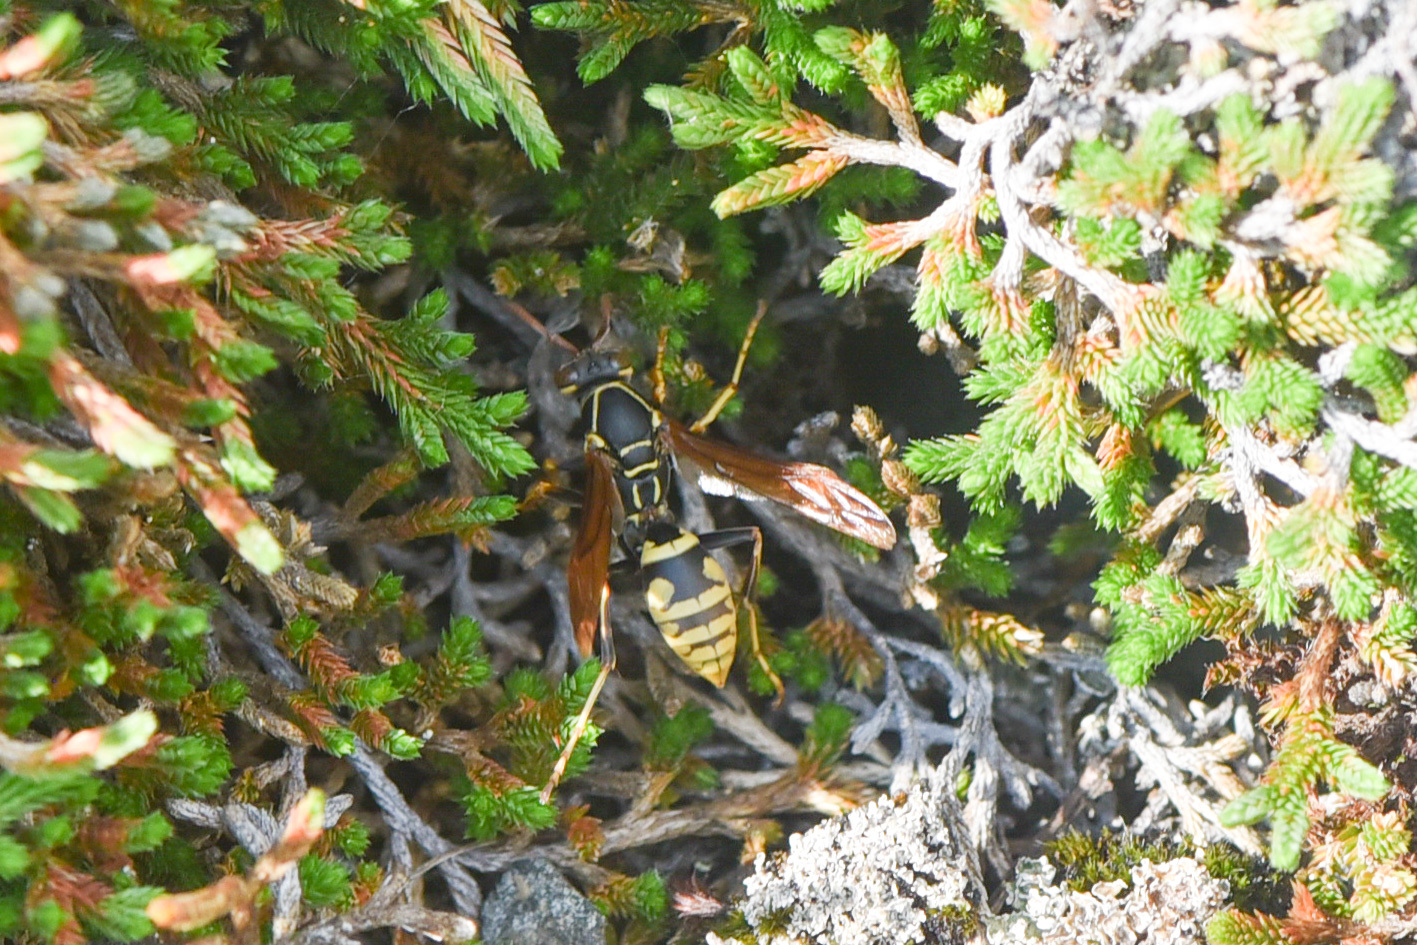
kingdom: Animalia
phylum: Arthropoda
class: Insecta
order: Hymenoptera
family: Eumenidae
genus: Polistes
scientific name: Polistes aurifer
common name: Paper wasp
